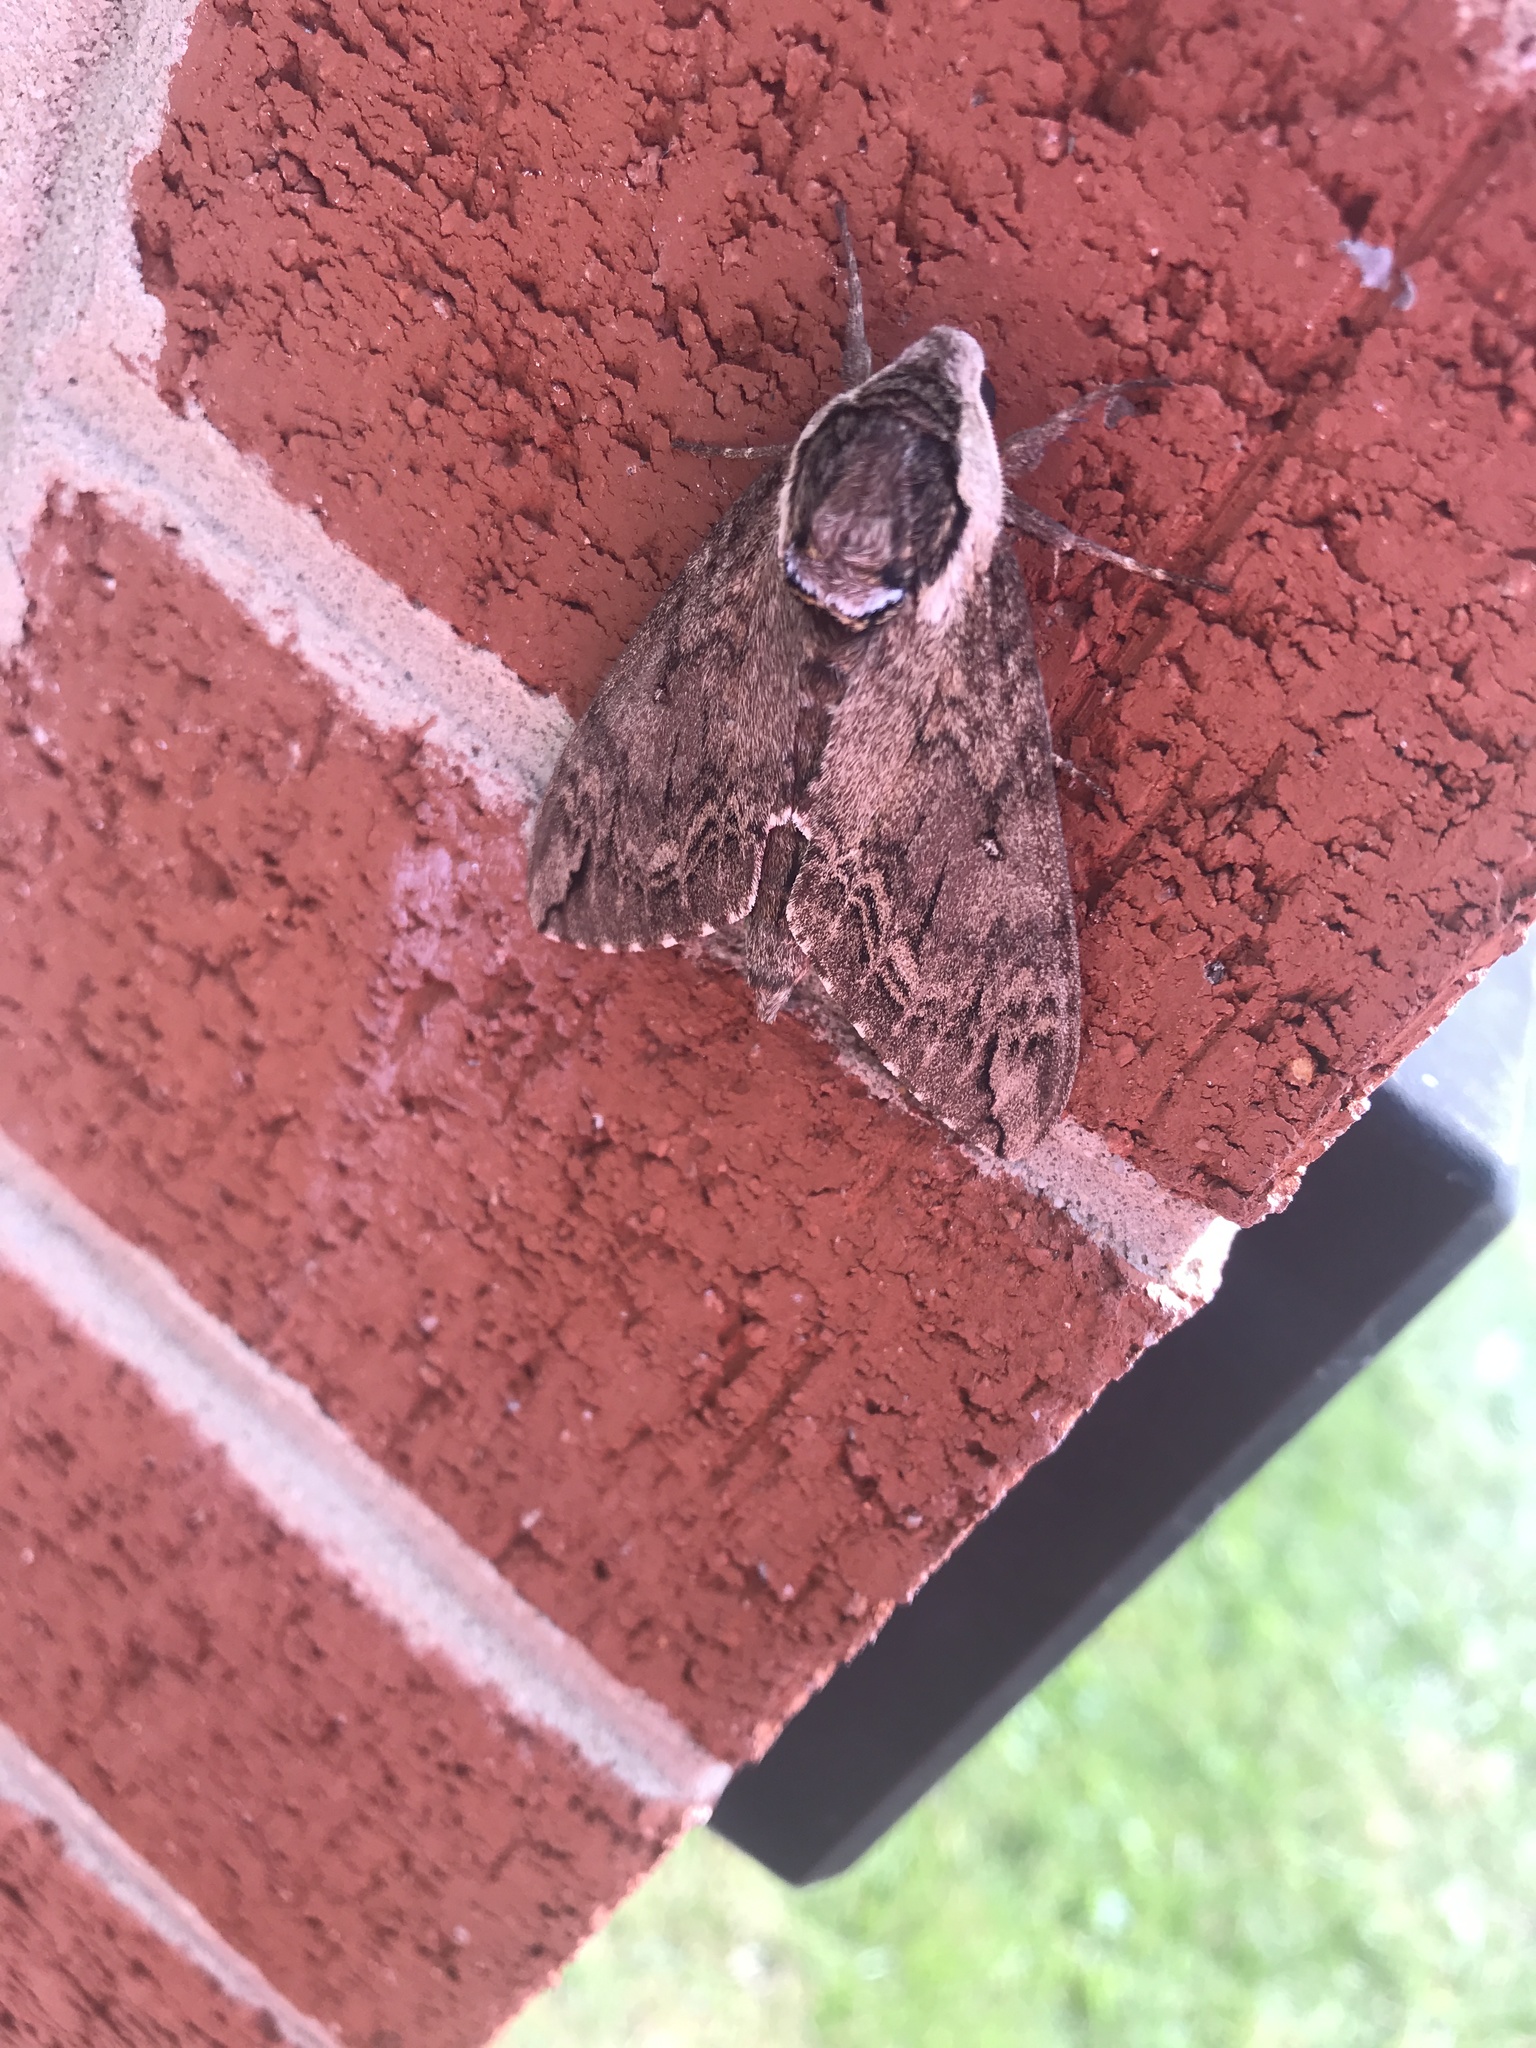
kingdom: Animalia
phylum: Arthropoda
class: Insecta
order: Lepidoptera
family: Sphingidae
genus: Ceratomia
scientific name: Ceratomia catalpae
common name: Catalpa hornworm
